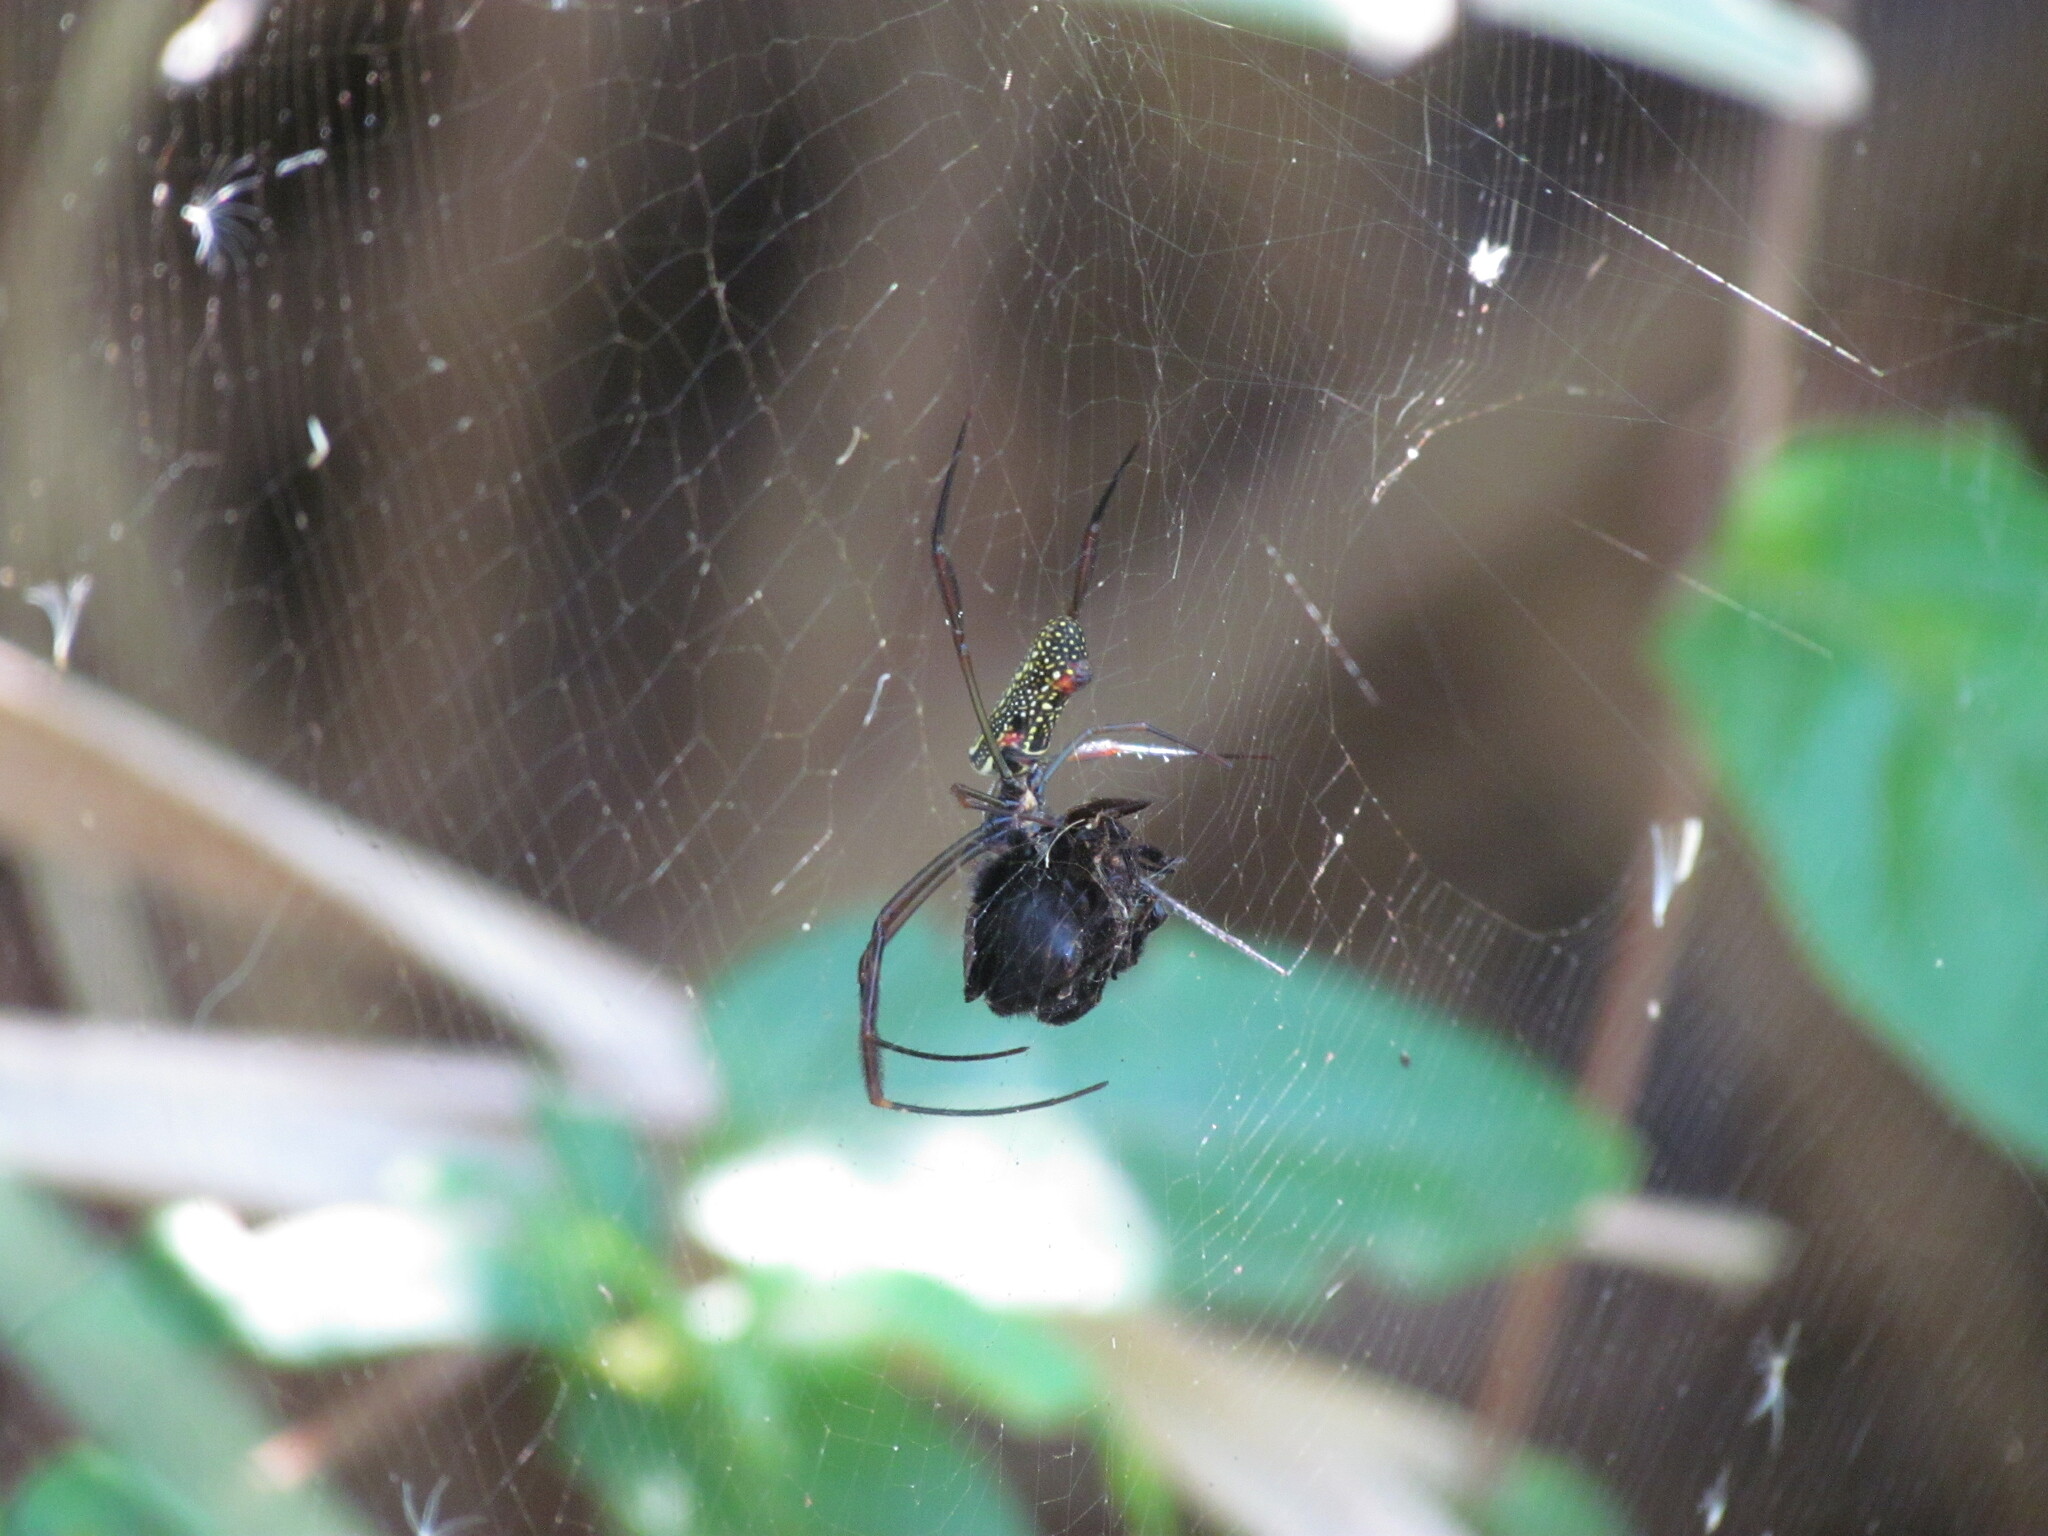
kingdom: Animalia
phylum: Arthropoda
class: Arachnida
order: Araneae
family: Araneidae
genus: Trichonephila
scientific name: Trichonephila clavipes
